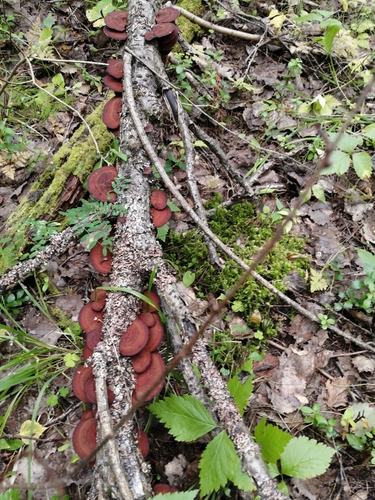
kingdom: Fungi
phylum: Basidiomycota
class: Agaricomycetes
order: Polyporales
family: Polyporaceae
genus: Daedaleopsis
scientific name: Daedaleopsis tricolor
